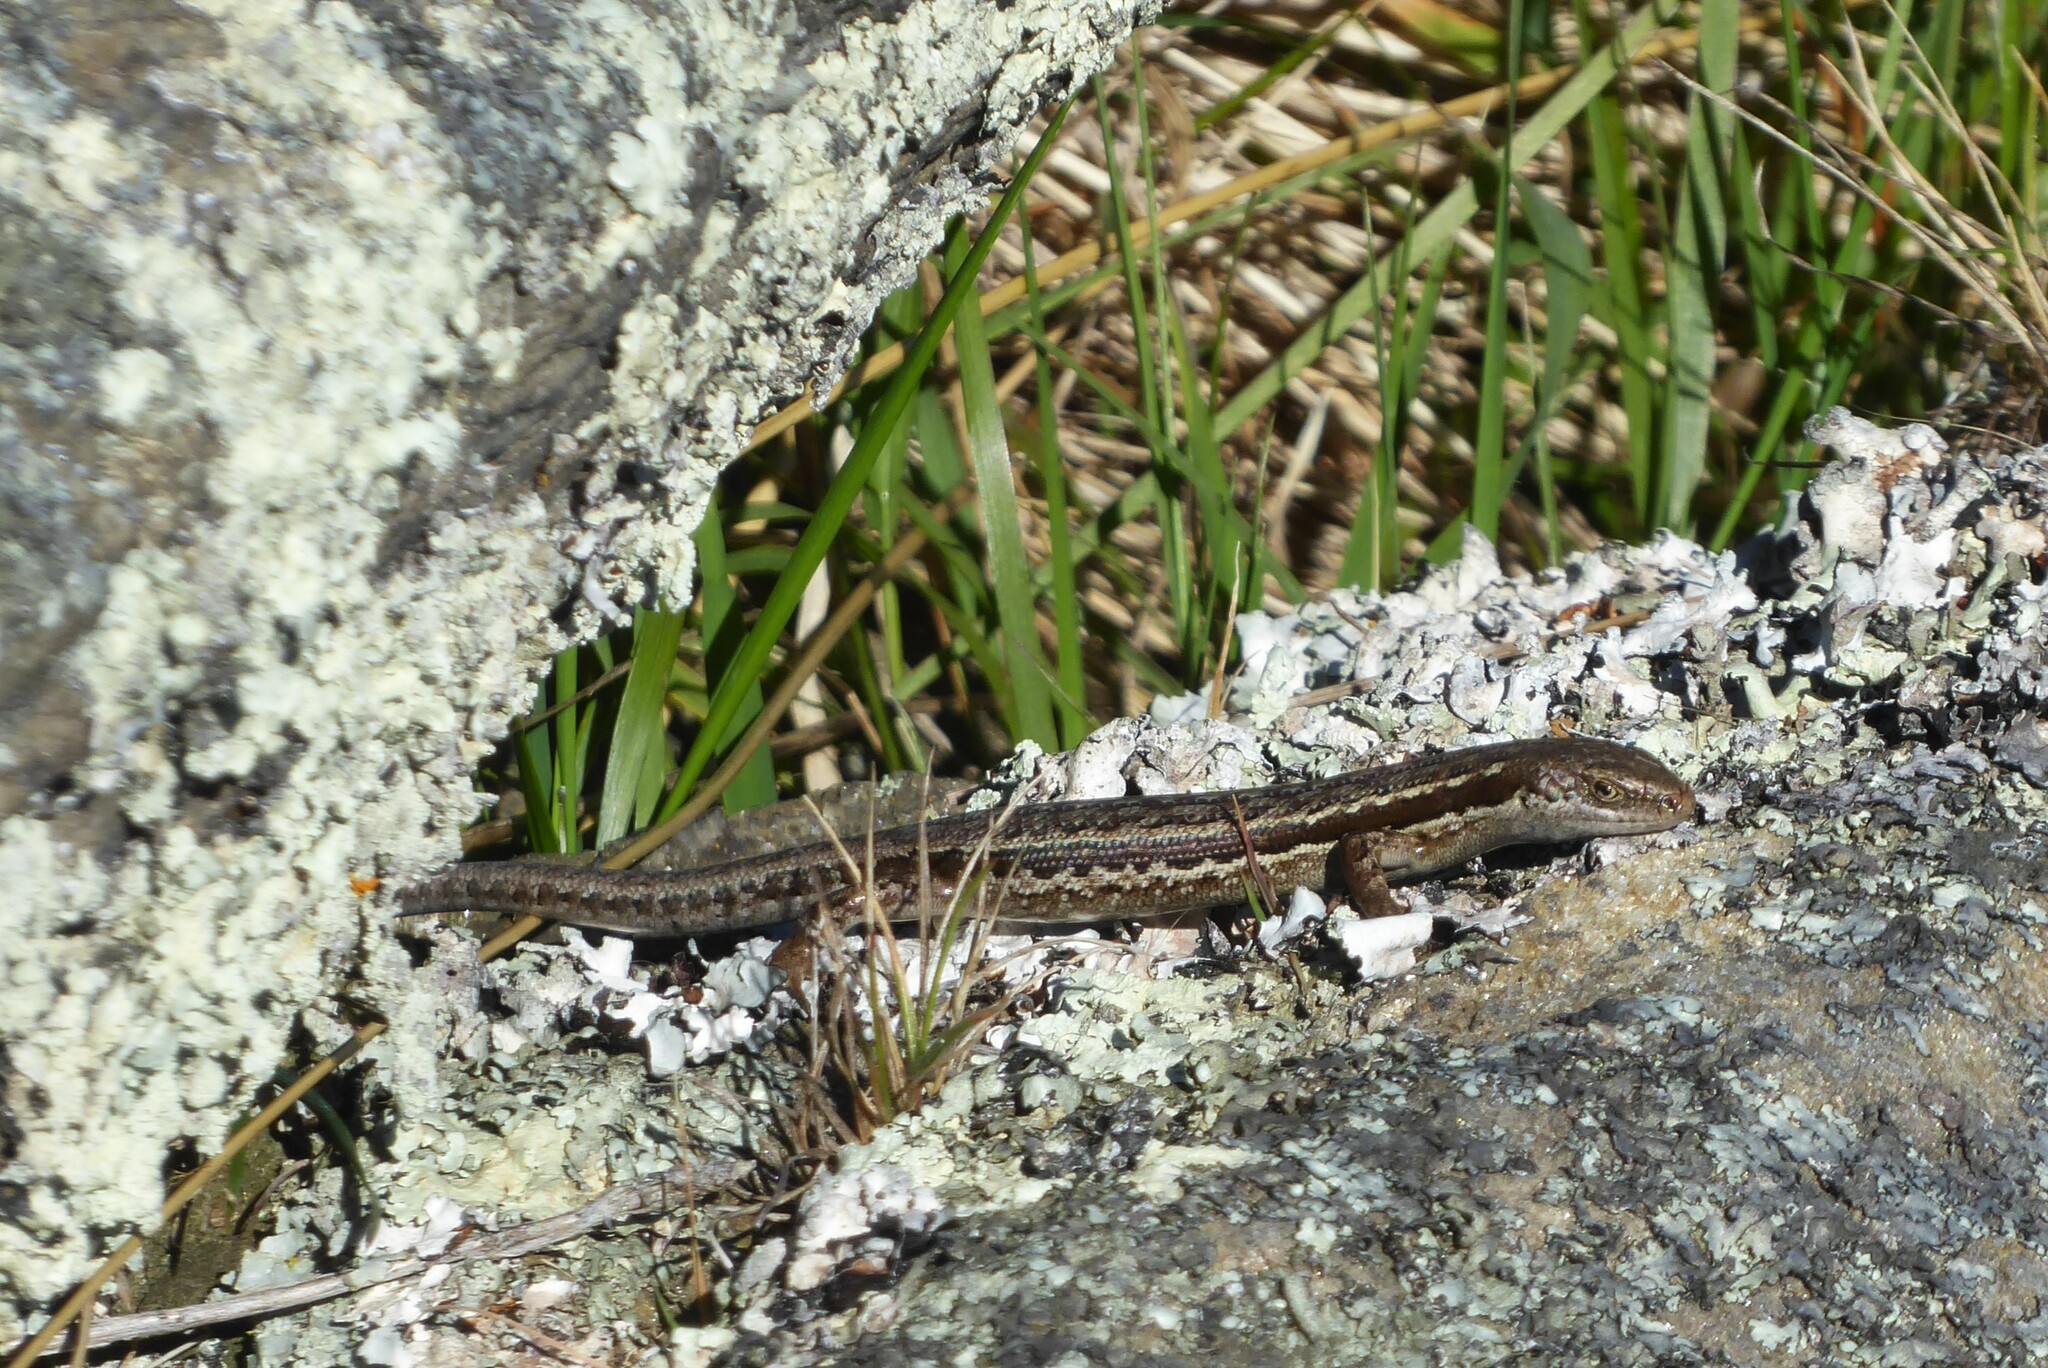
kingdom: Animalia
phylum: Chordata
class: Squamata
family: Scincidae
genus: Oligosoma
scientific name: Oligosoma maccanni
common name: Mccann’s skink
